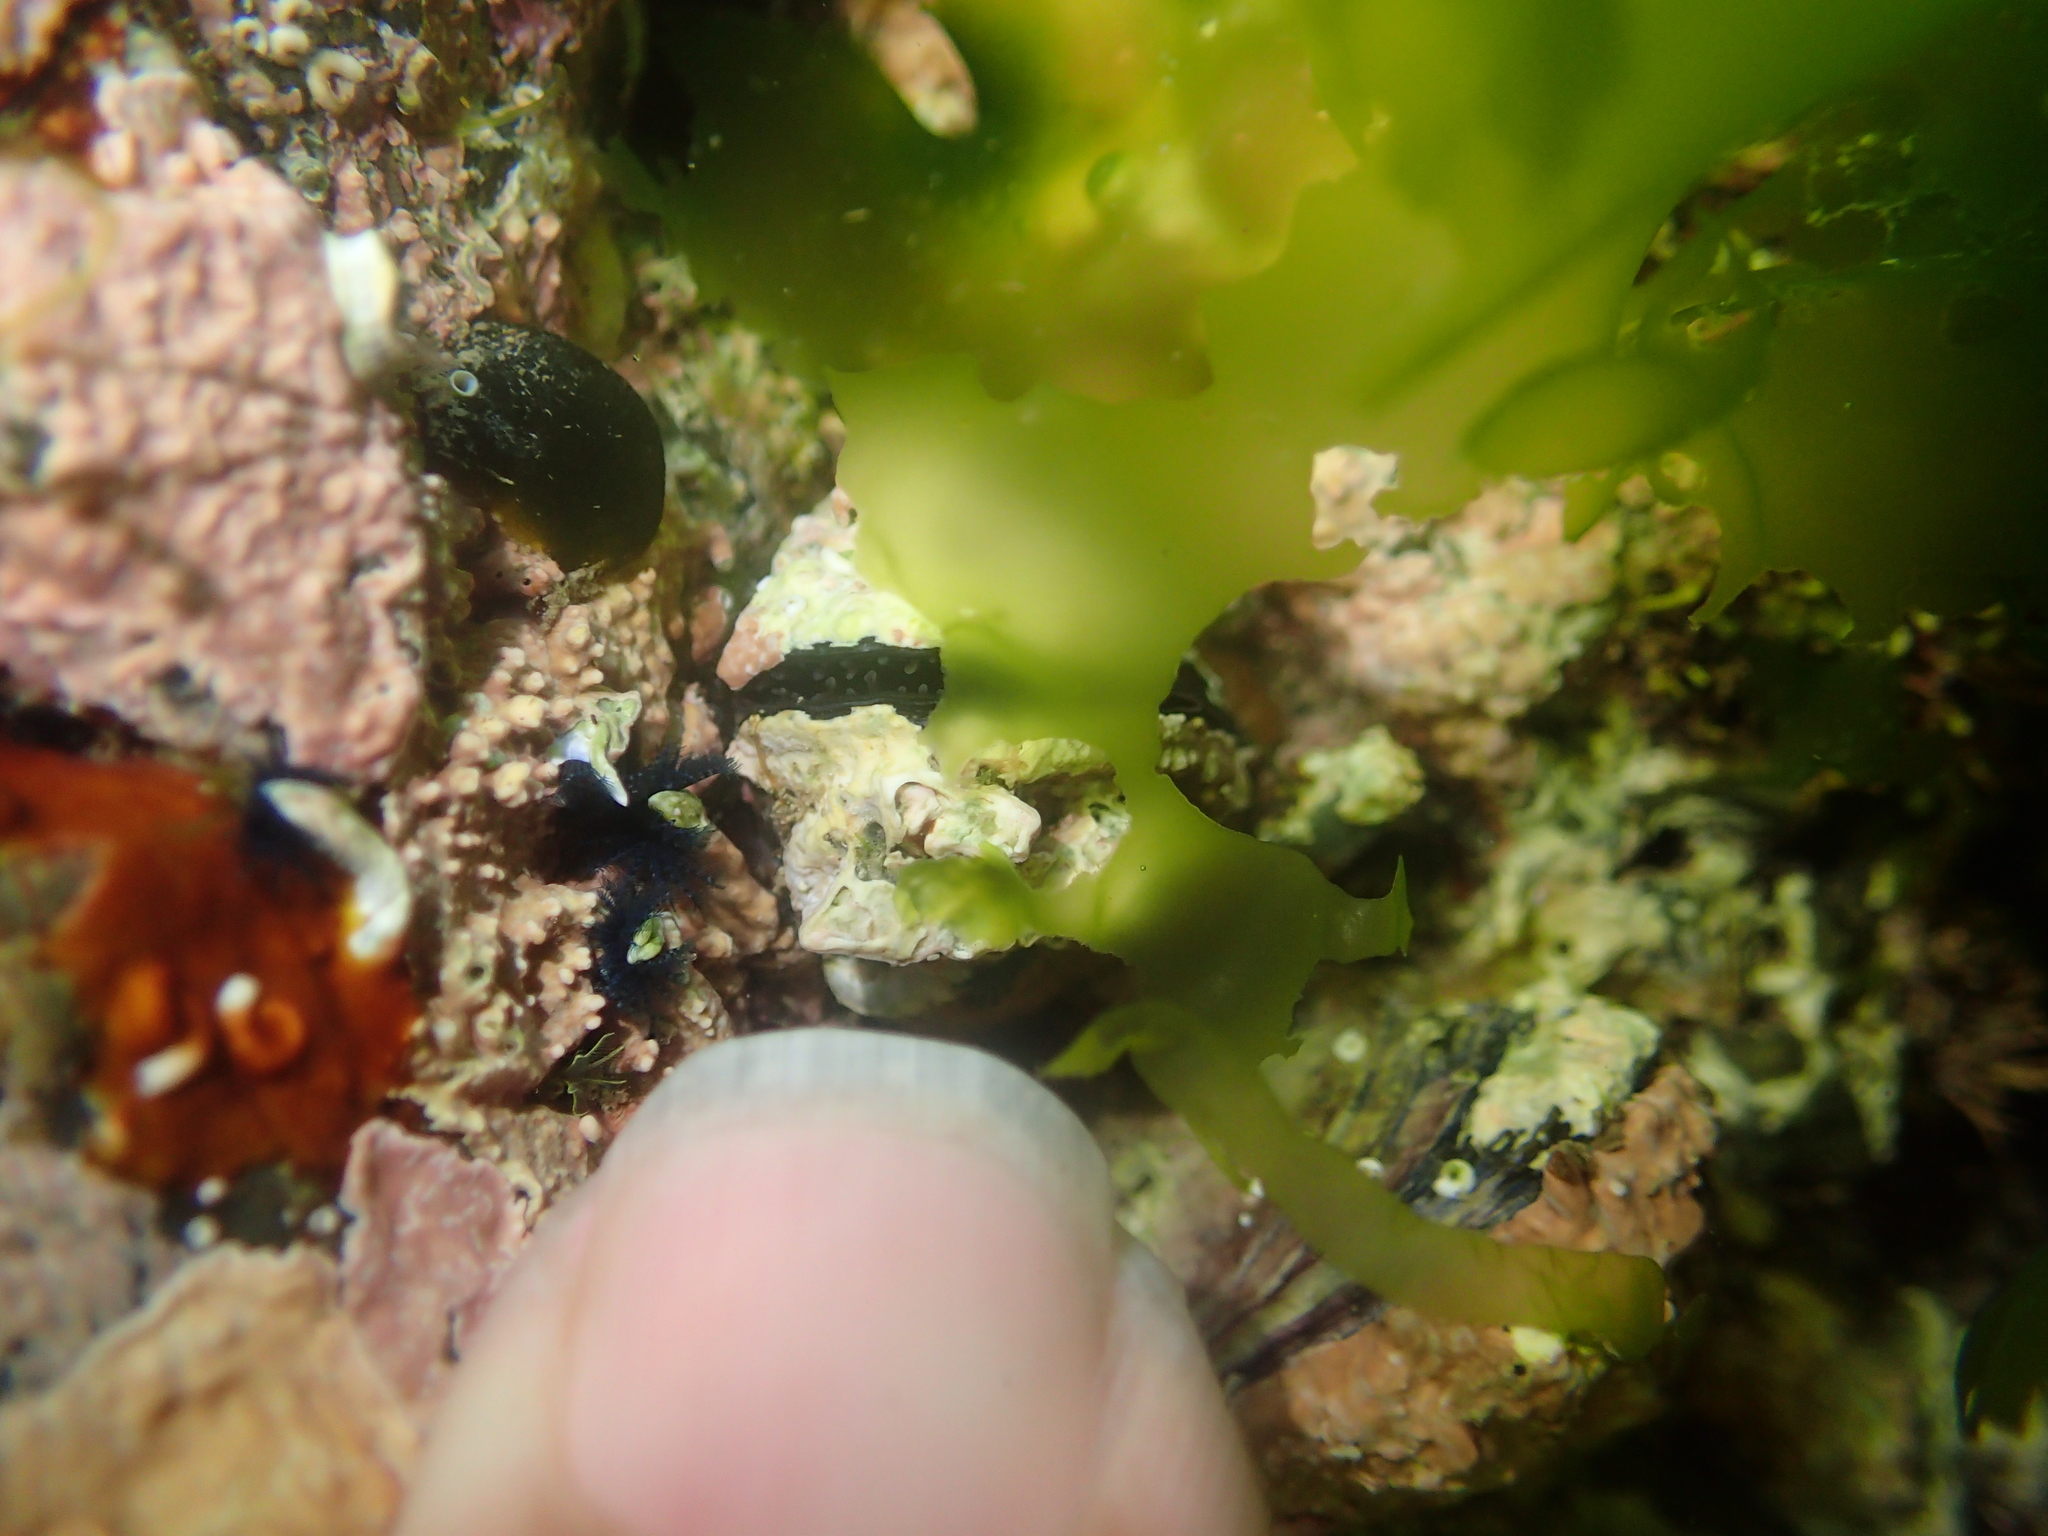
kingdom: Animalia
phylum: Mollusca
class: Bivalvia
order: Mytilida
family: Mytilidae
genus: Mytilus
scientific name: Mytilus planulatus
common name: Australian mussel
